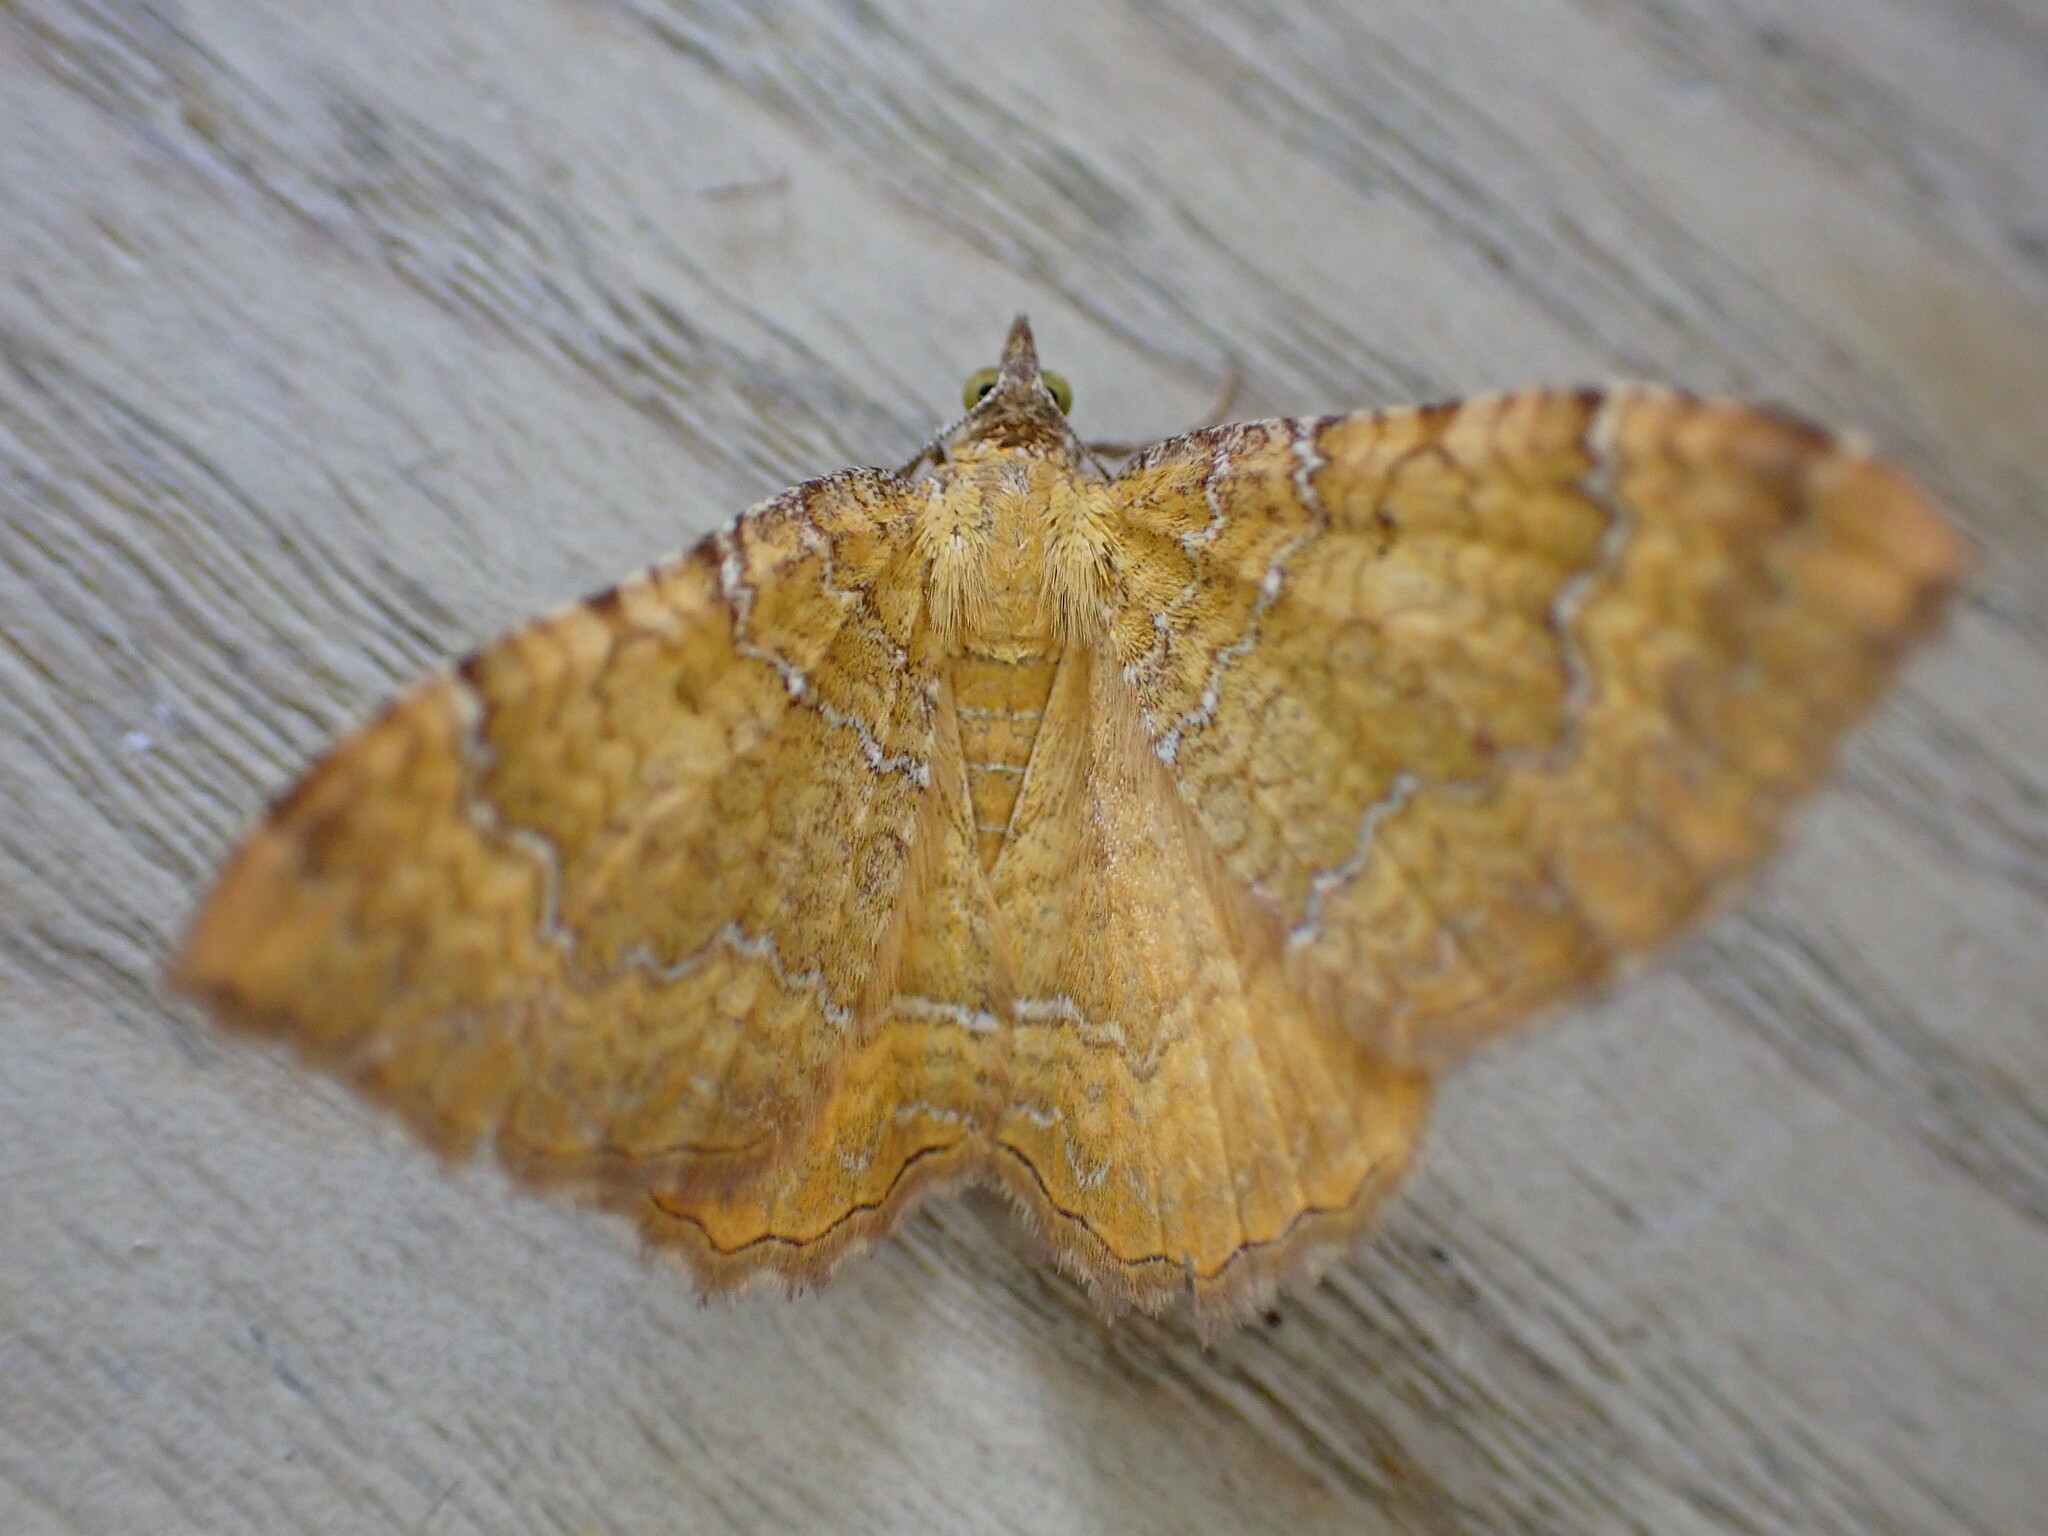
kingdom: Animalia
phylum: Arthropoda
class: Insecta
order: Lepidoptera
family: Geometridae
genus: Camptogramma
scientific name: Camptogramma bilineata
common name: Yellow shell
